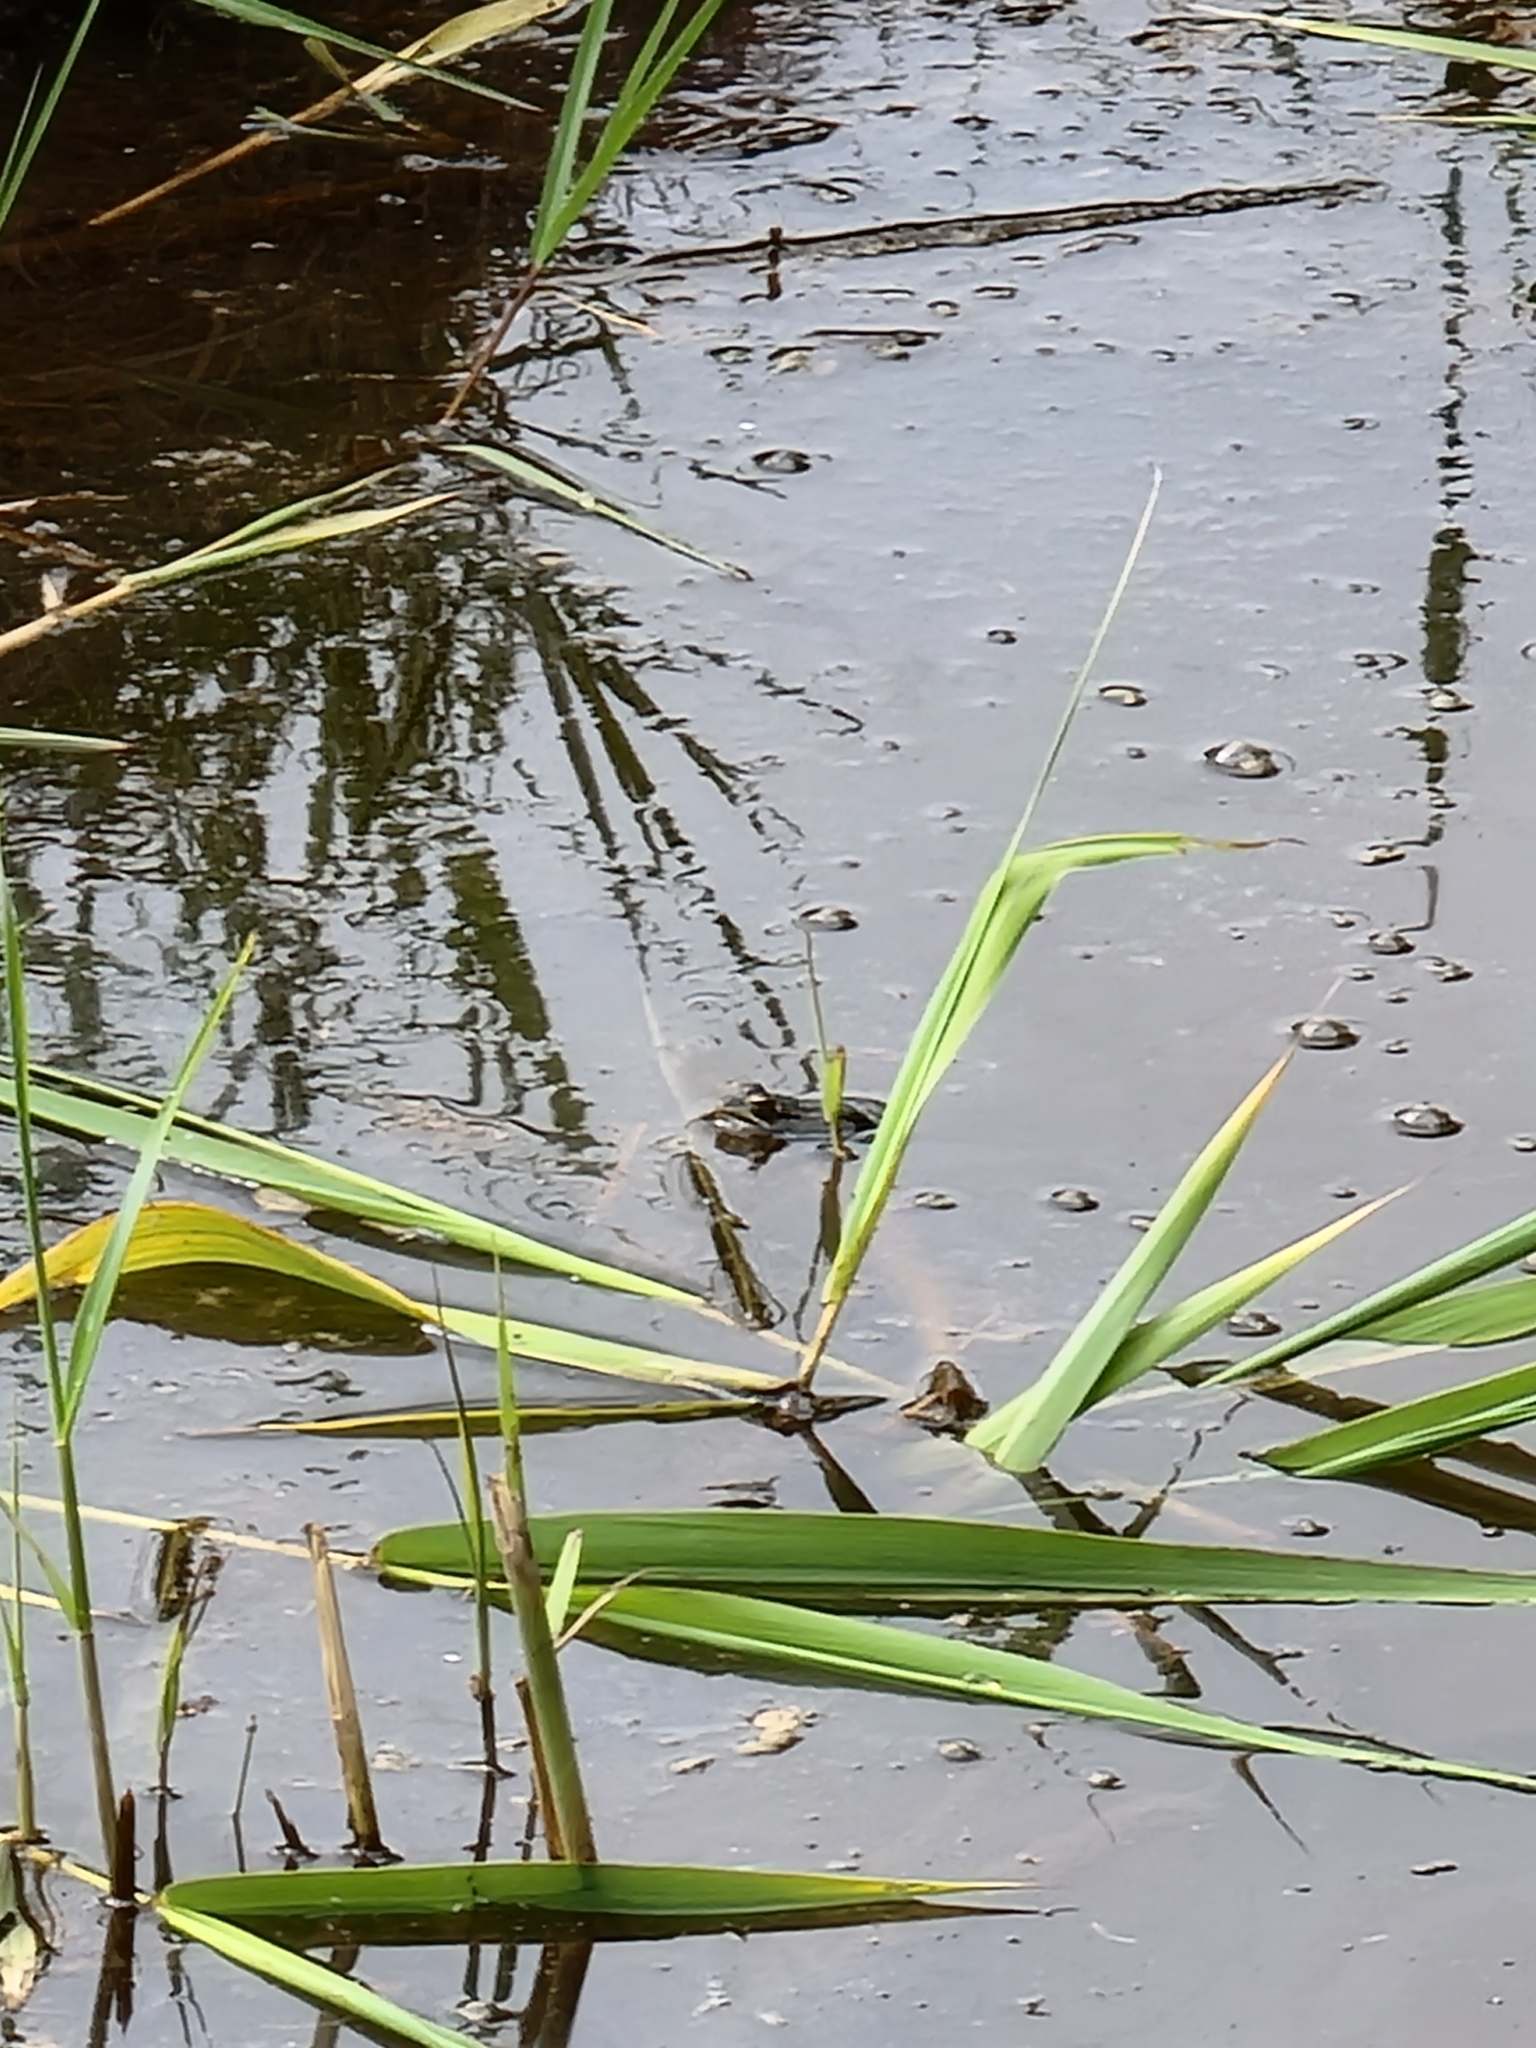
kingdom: Animalia
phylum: Chordata
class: Amphibia
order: Anura
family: Ranidae
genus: Pelophylax
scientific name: Pelophylax perezi
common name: Perez's frog
